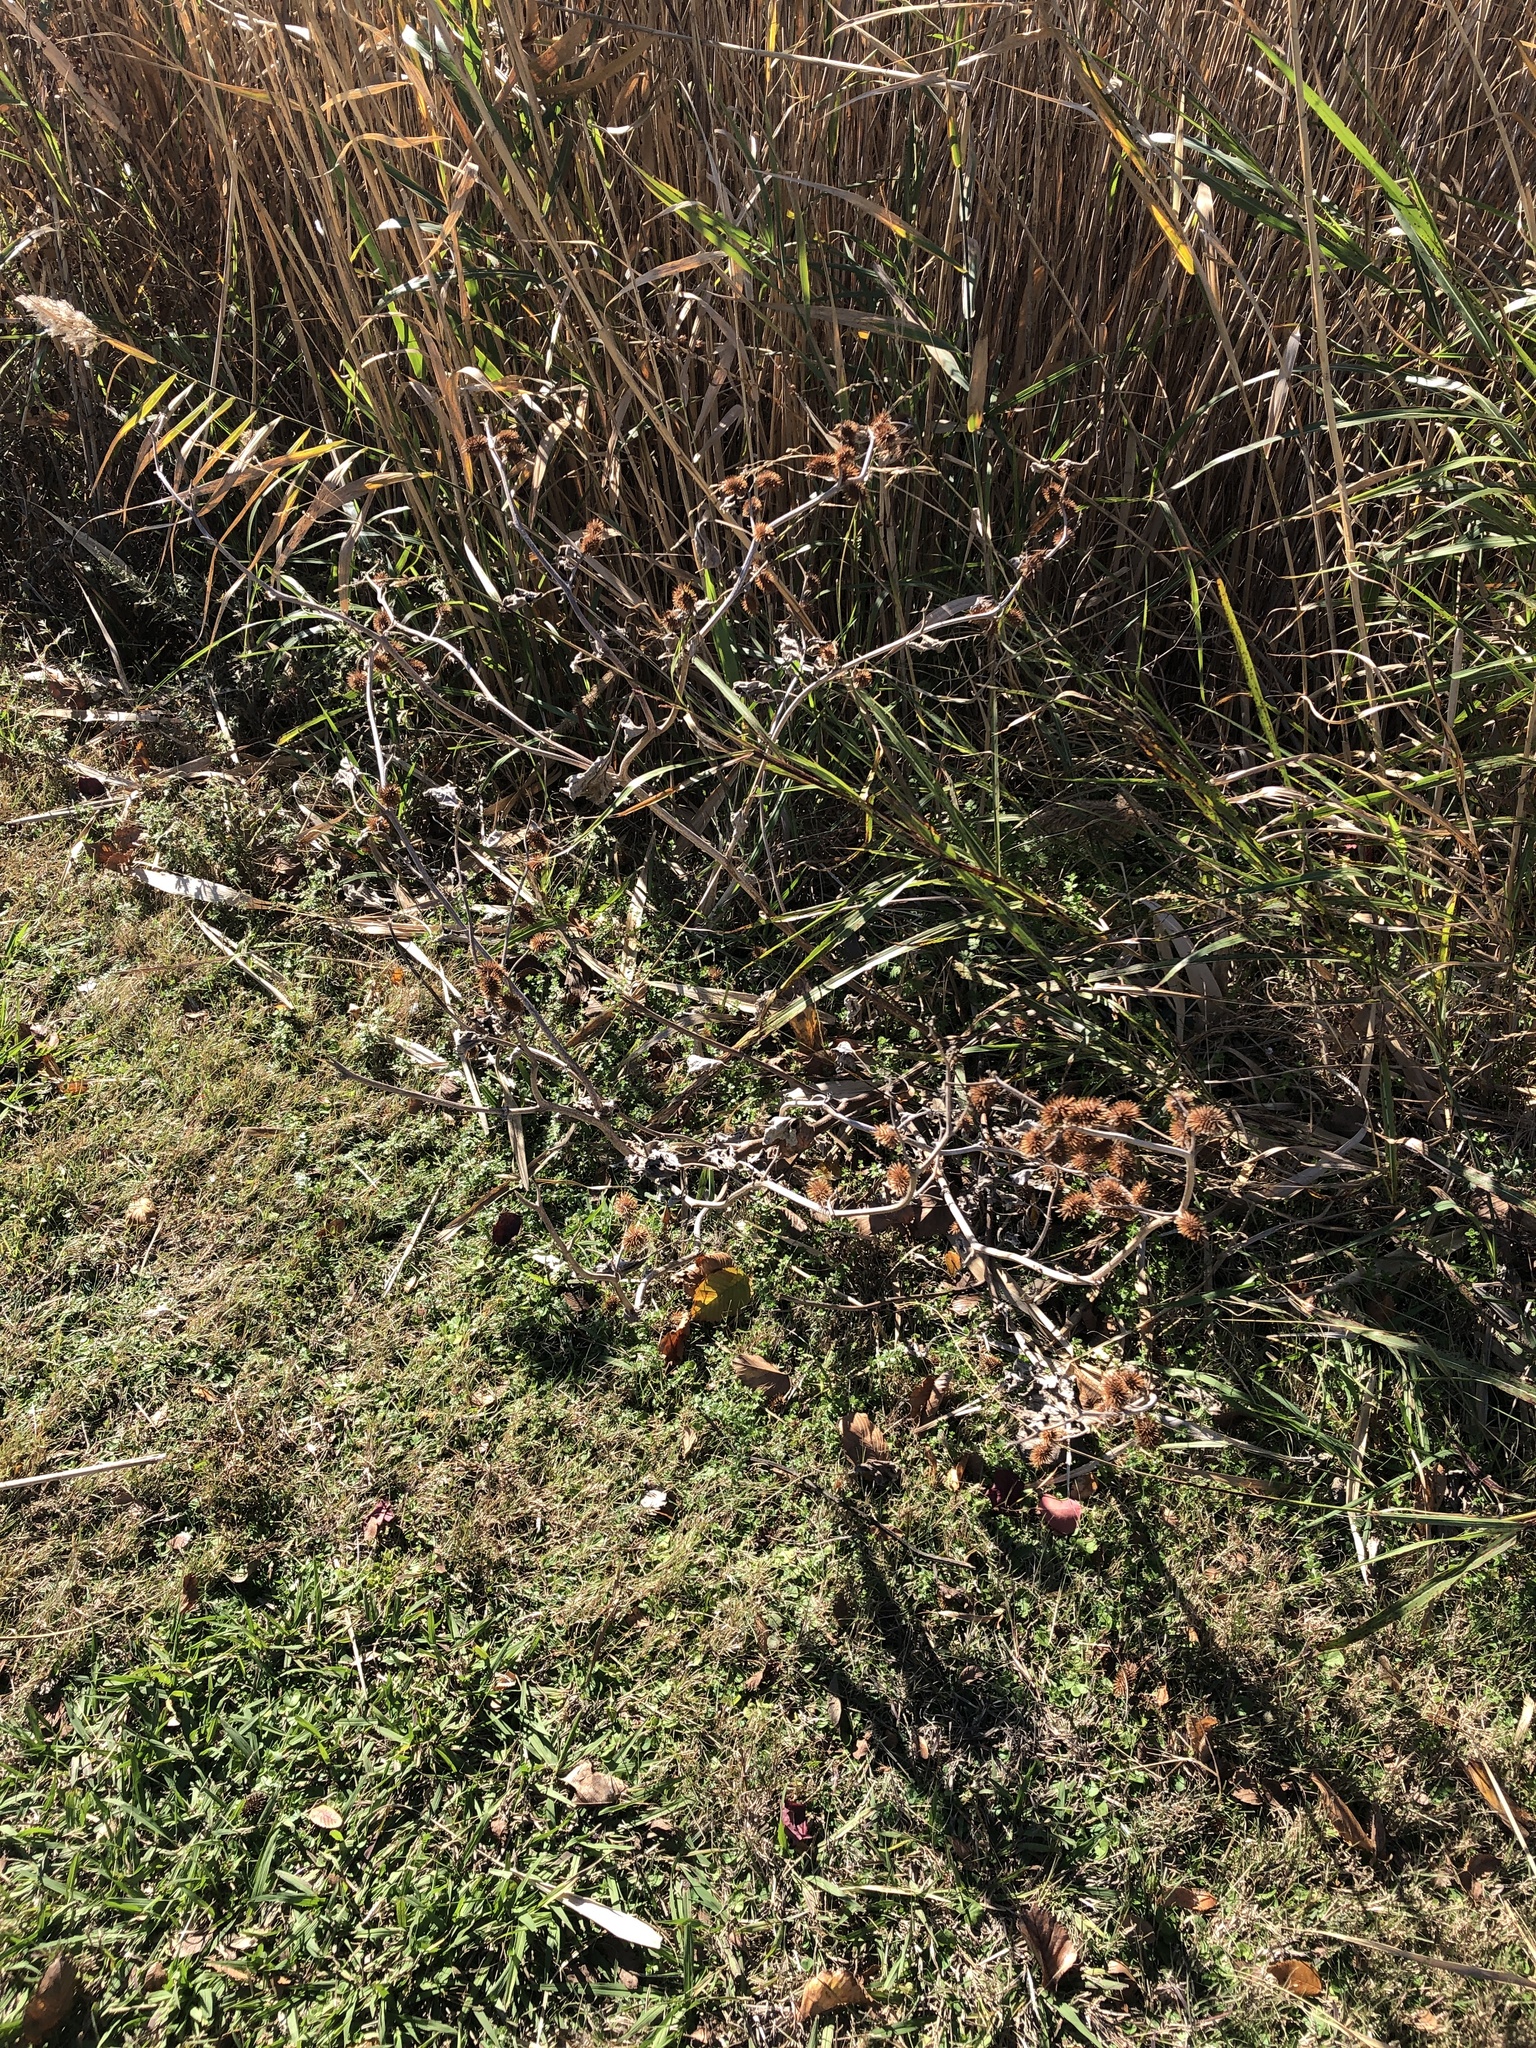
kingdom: Plantae
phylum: Tracheophyta
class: Magnoliopsida
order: Asterales
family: Asteraceae
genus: Xanthium
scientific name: Xanthium strumarium
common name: Rough cocklebur
